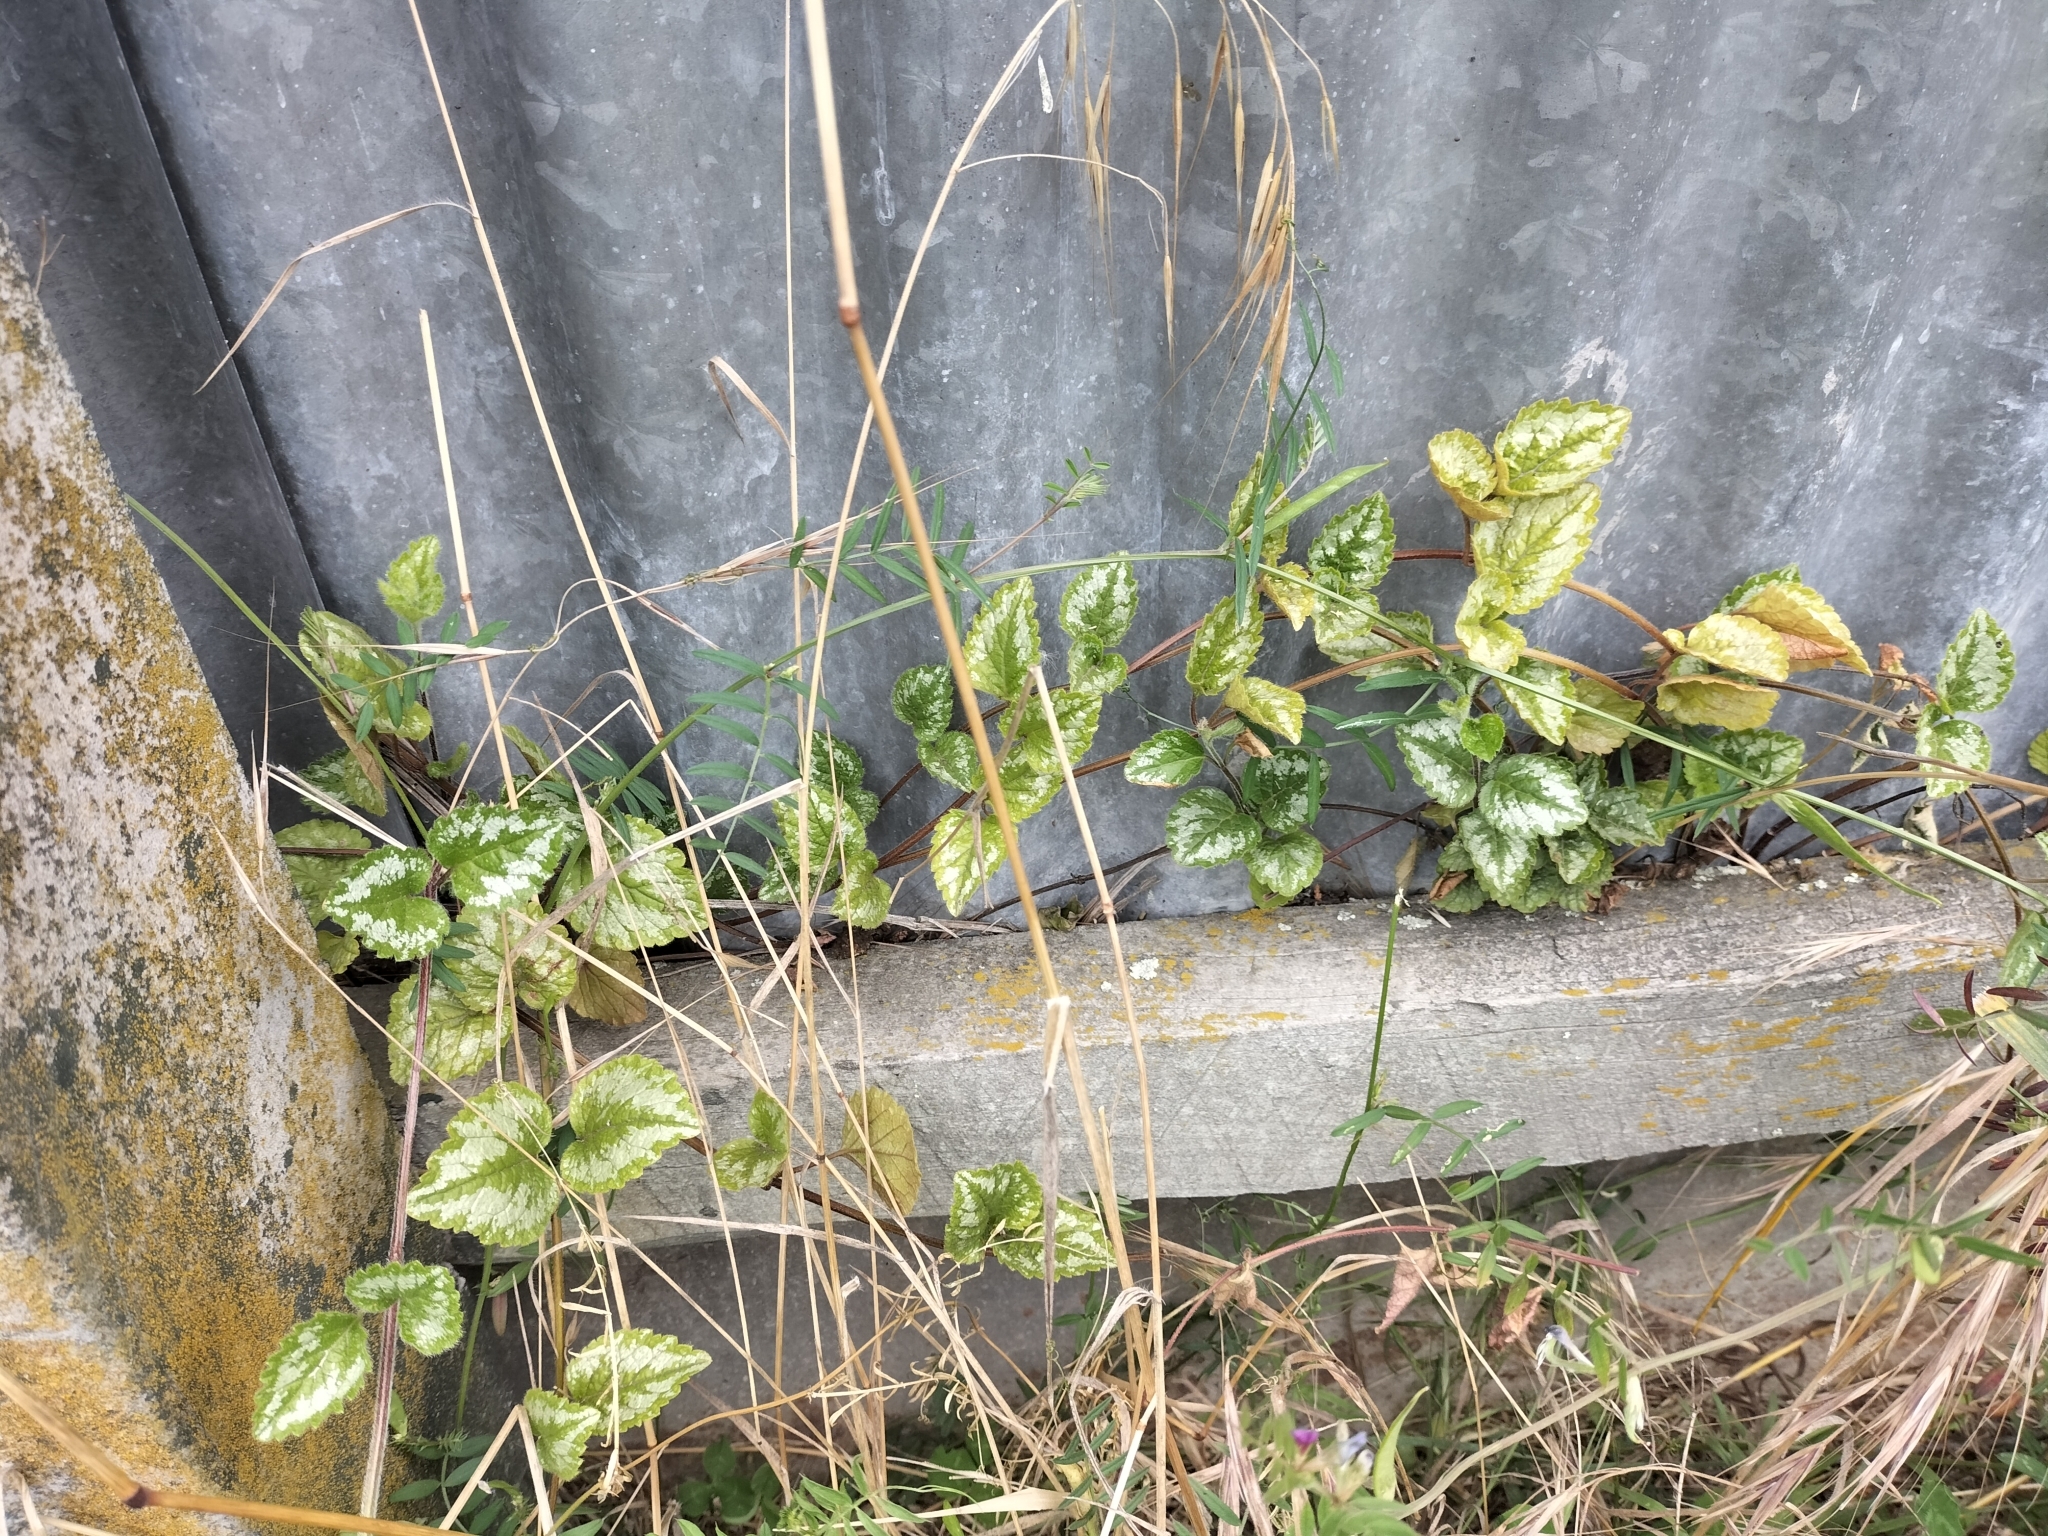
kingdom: Plantae
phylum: Tracheophyta
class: Magnoliopsida
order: Lamiales
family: Lamiaceae
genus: Lamium
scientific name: Lamium galeobdolon
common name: Yellow archangel
